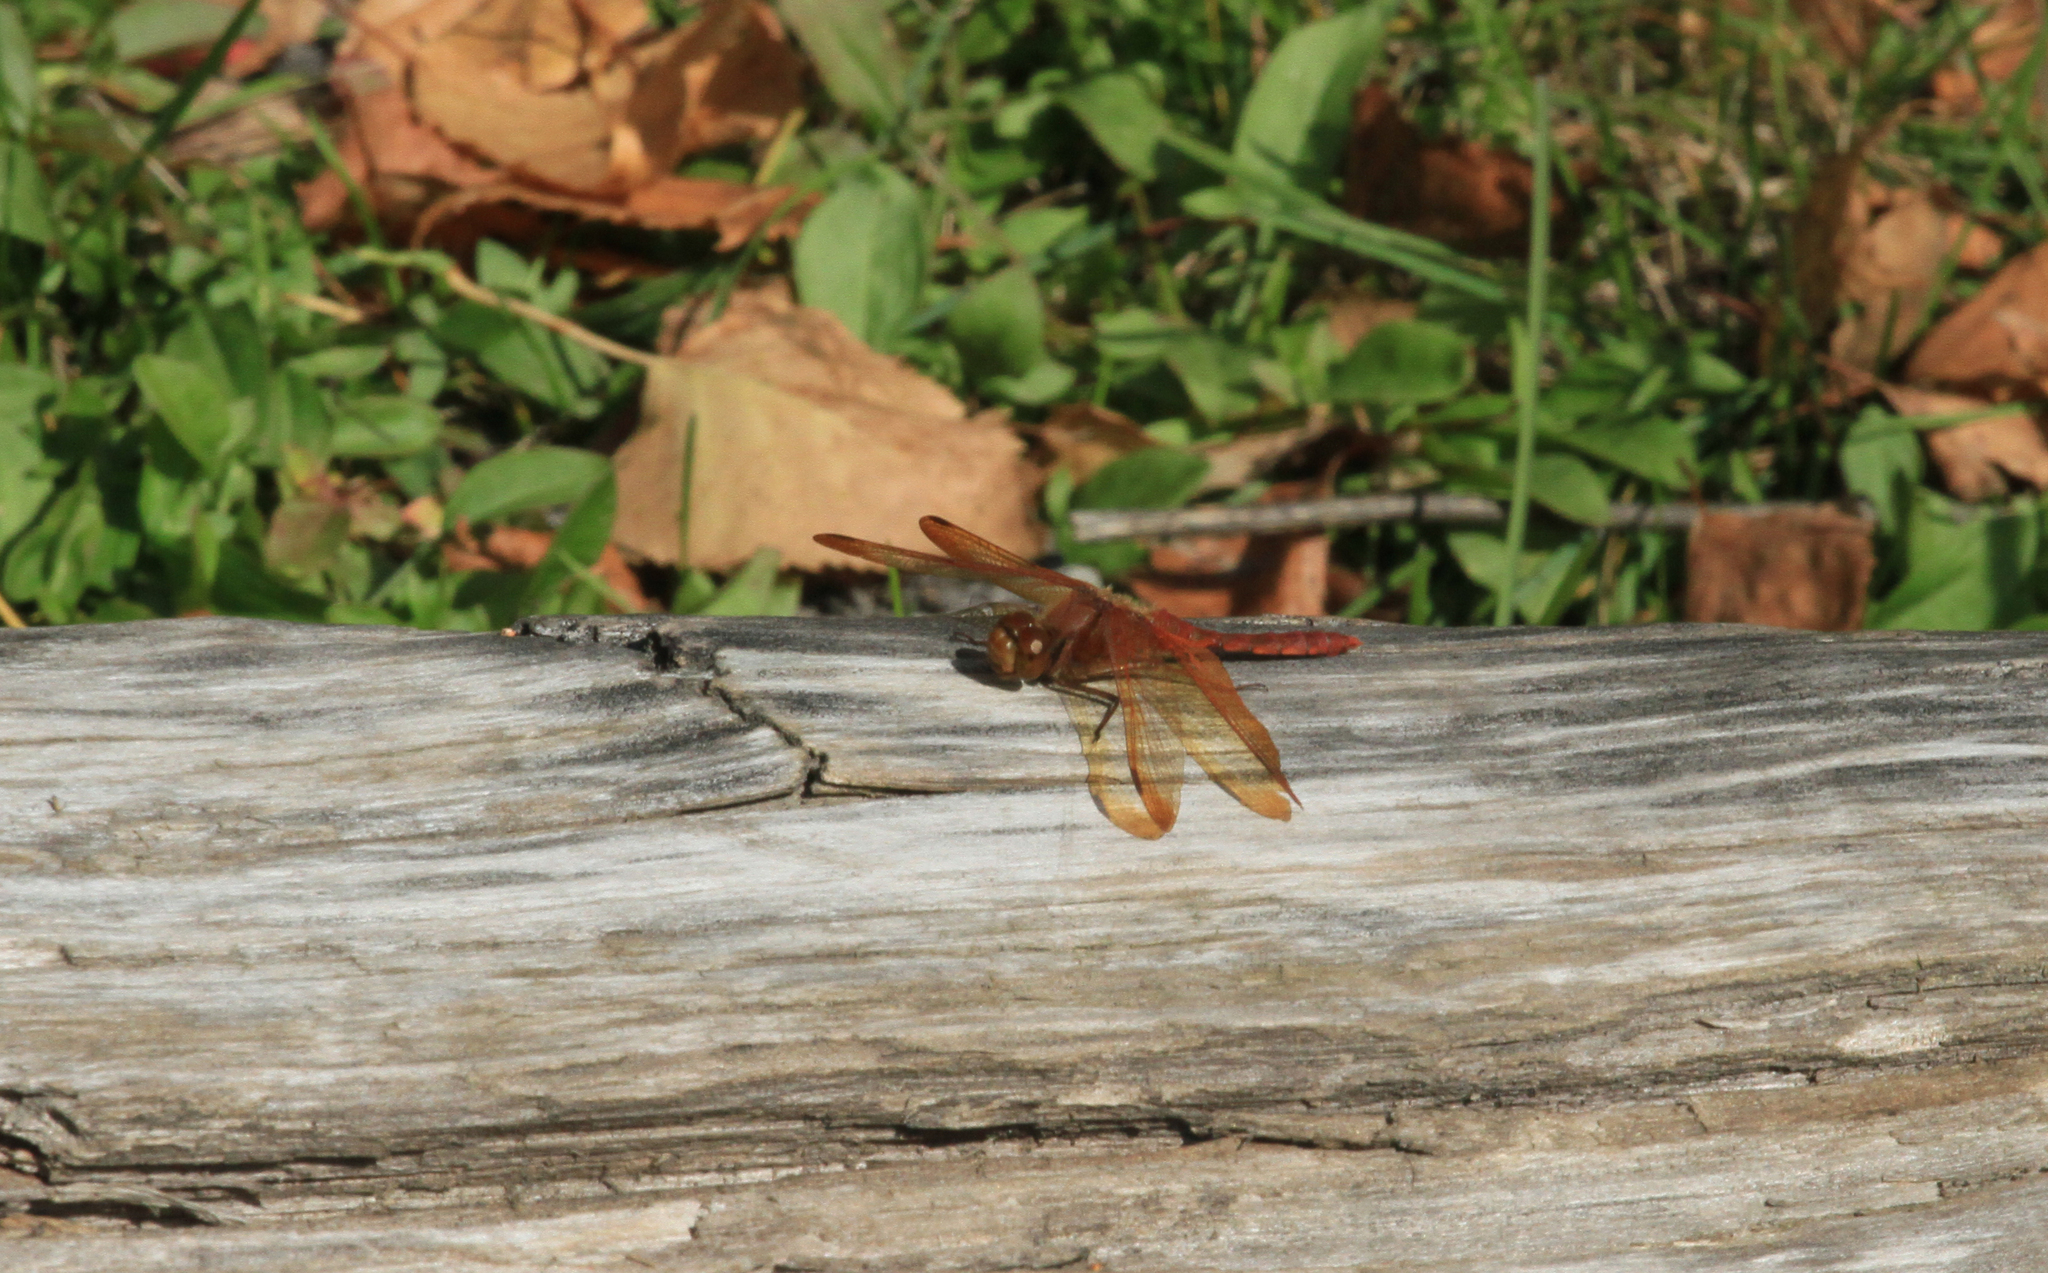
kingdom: Animalia
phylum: Arthropoda
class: Insecta
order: Odonata
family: Libellulidae
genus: Sympetrum
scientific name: Sympetrum croceolum
